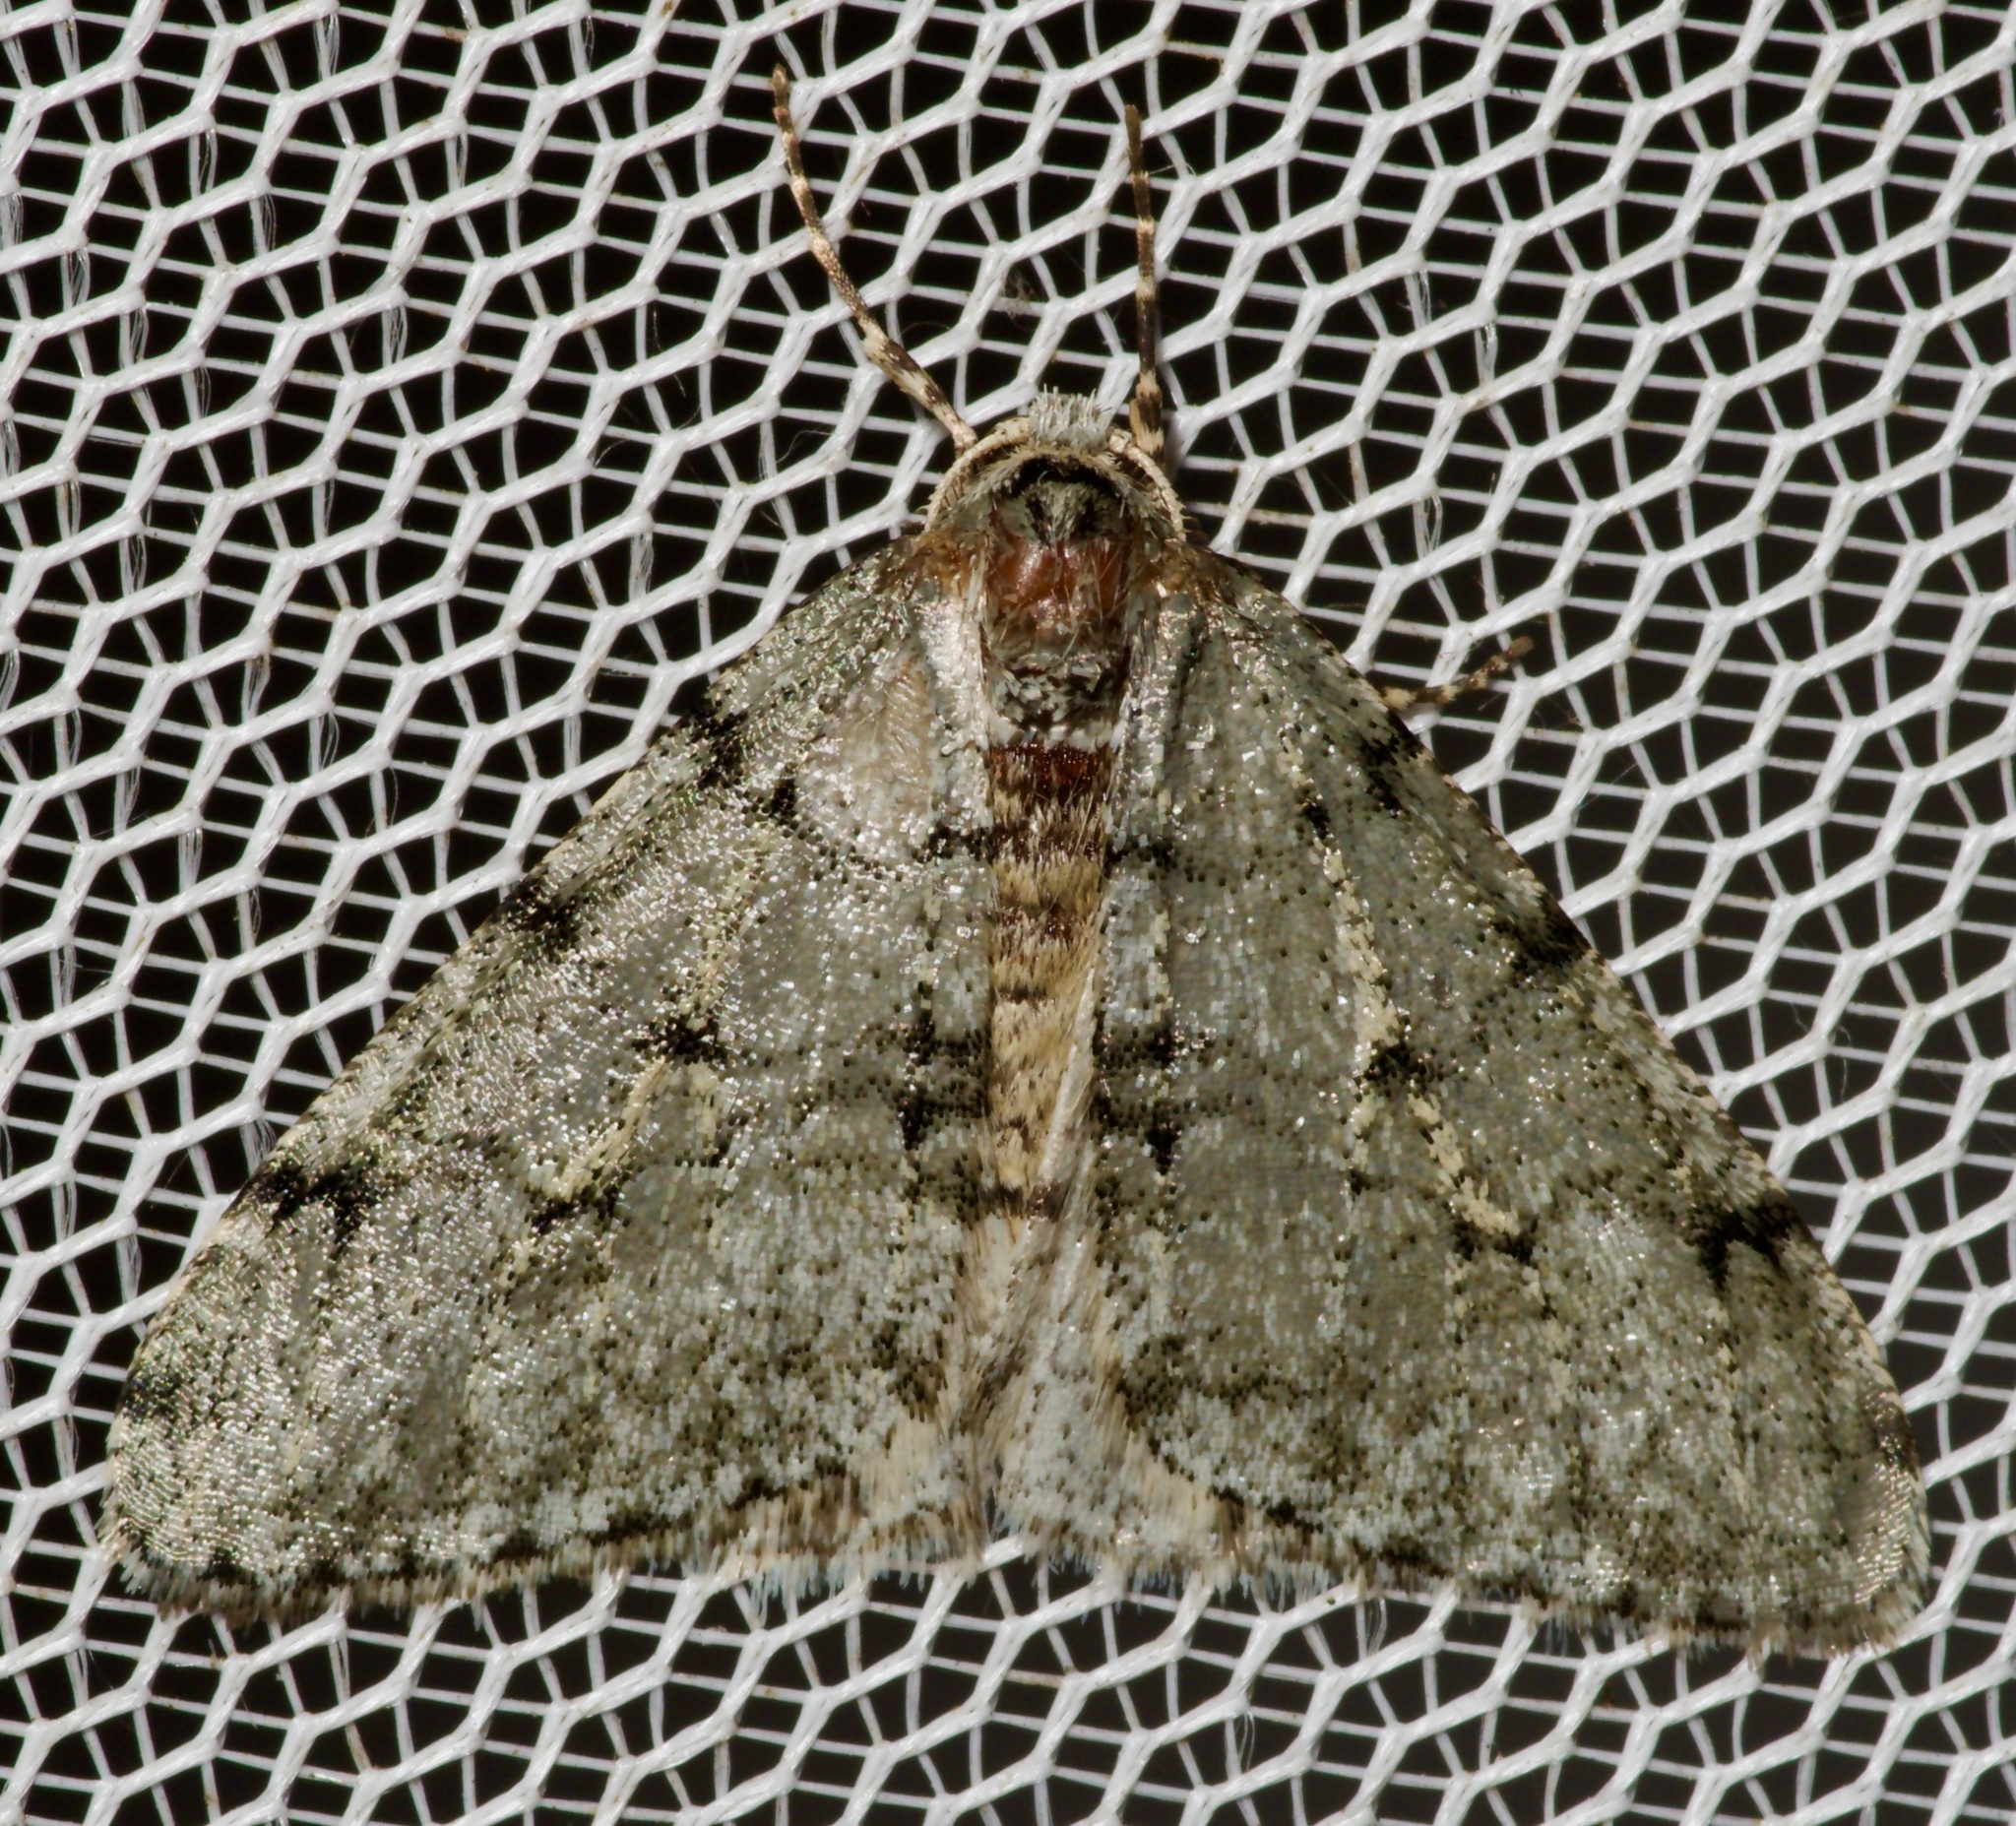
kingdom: Animalia
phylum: Arthropoda
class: Insecta
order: Lepidoptera
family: Geometridae
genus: Phigalia
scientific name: Phigalia strigataria
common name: Small phigalia
